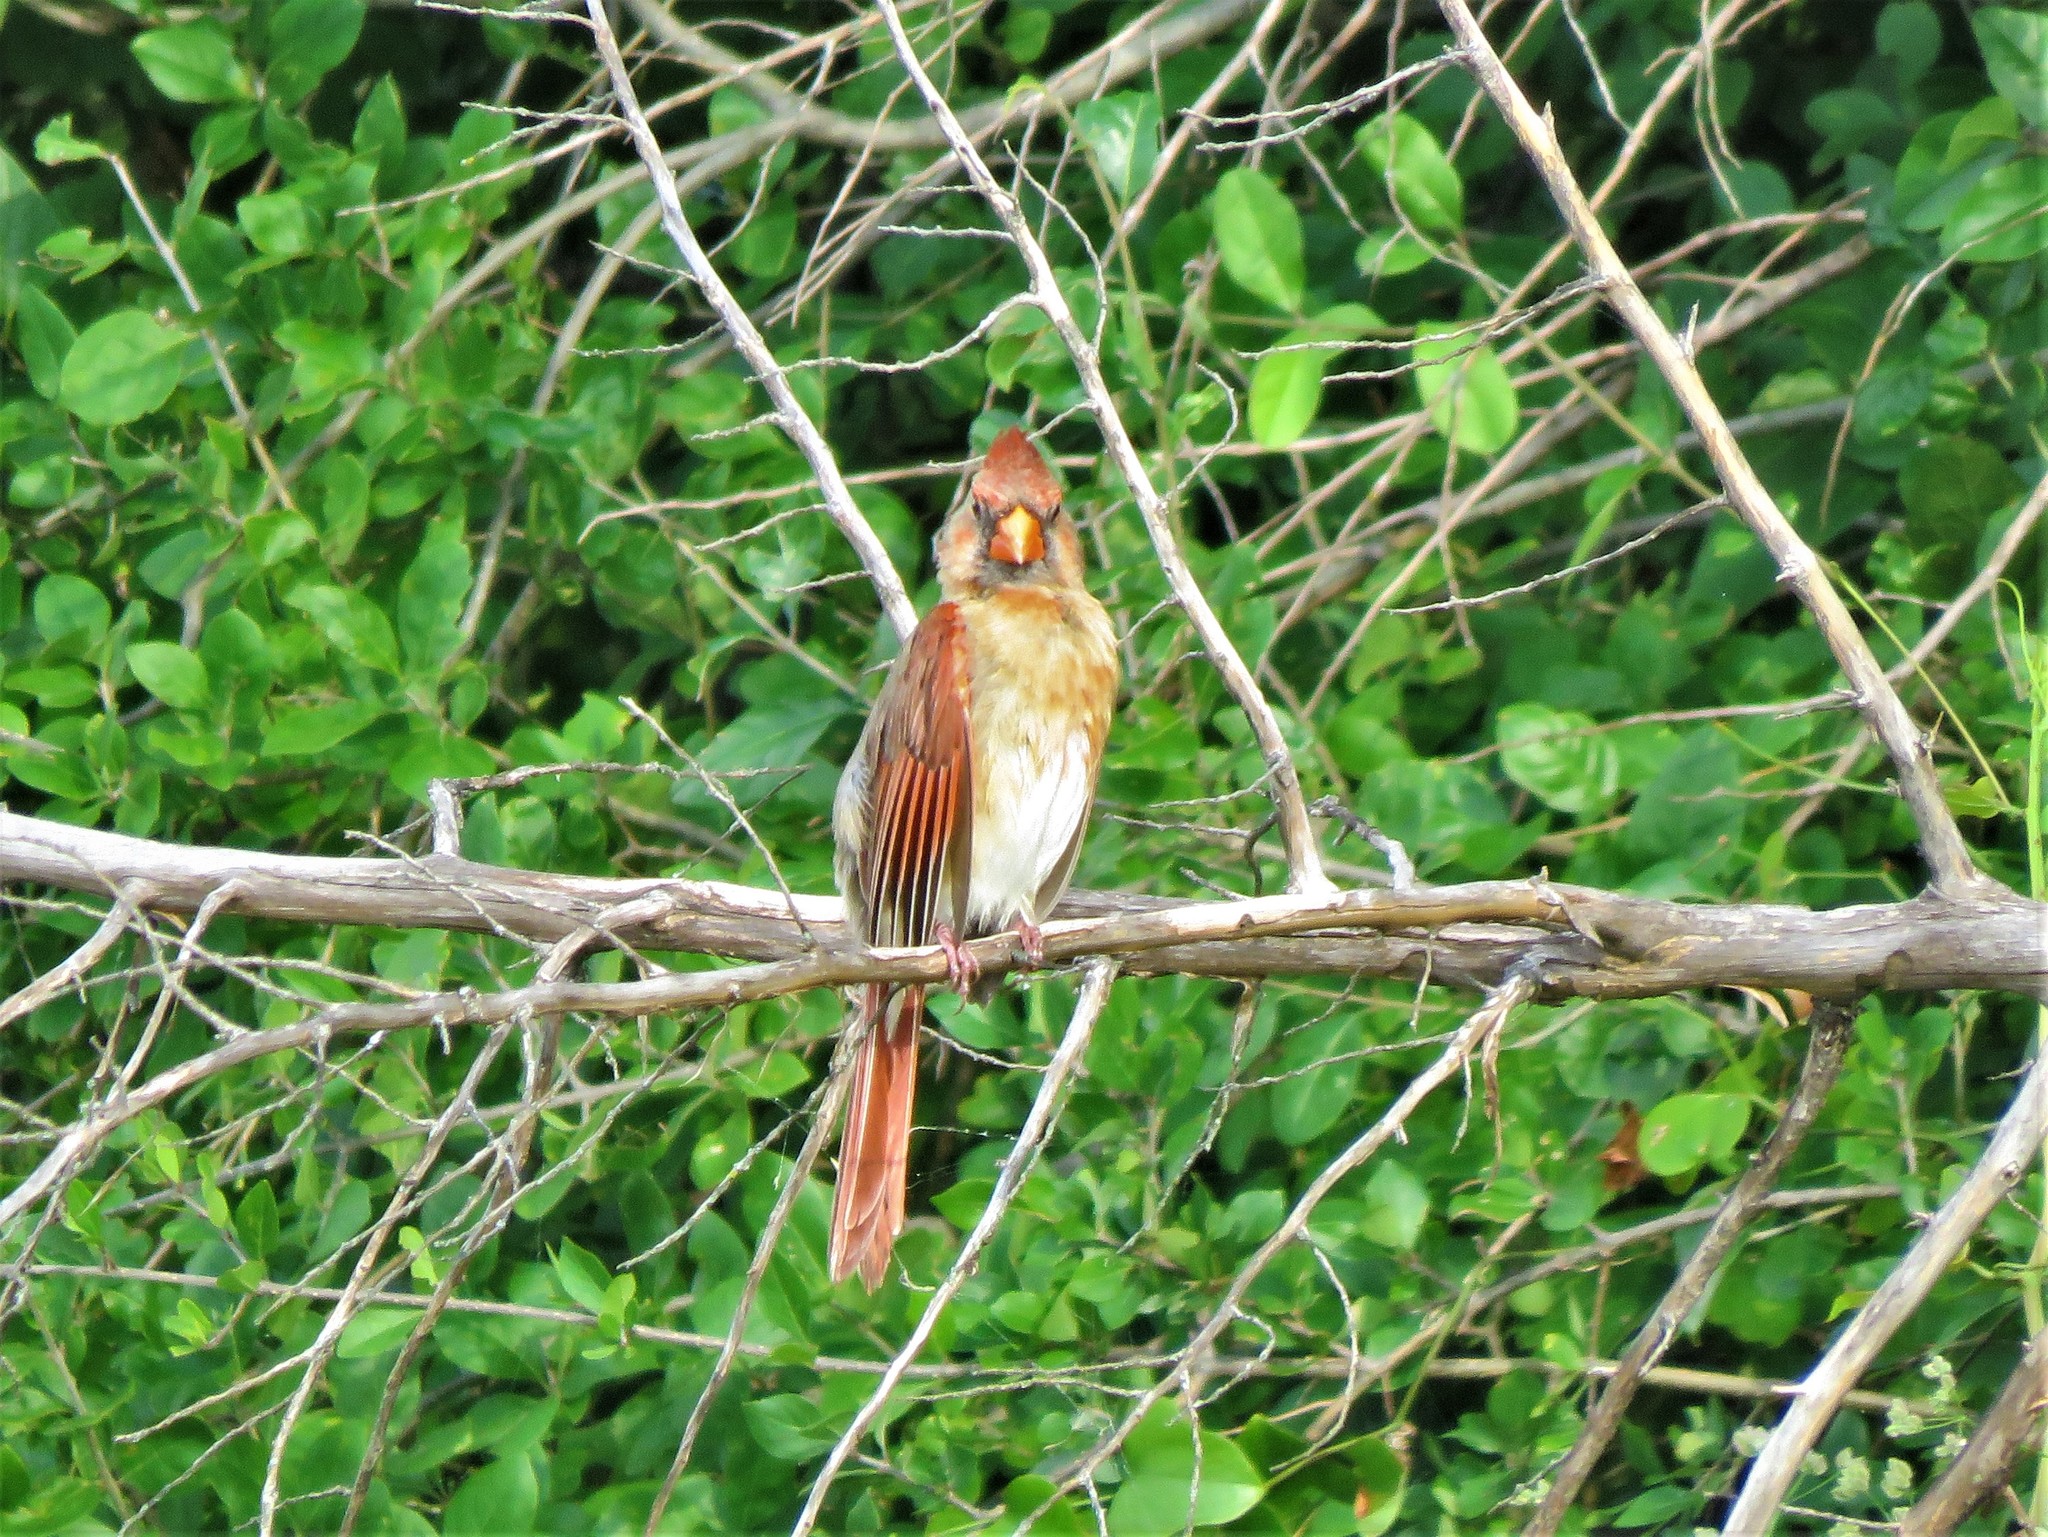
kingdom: Animalia
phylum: Chordata
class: Aves
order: Passeriformes
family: Cardinalidae
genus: Cardinalis
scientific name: Cardinalis cardinalis
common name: Northern cardinal
